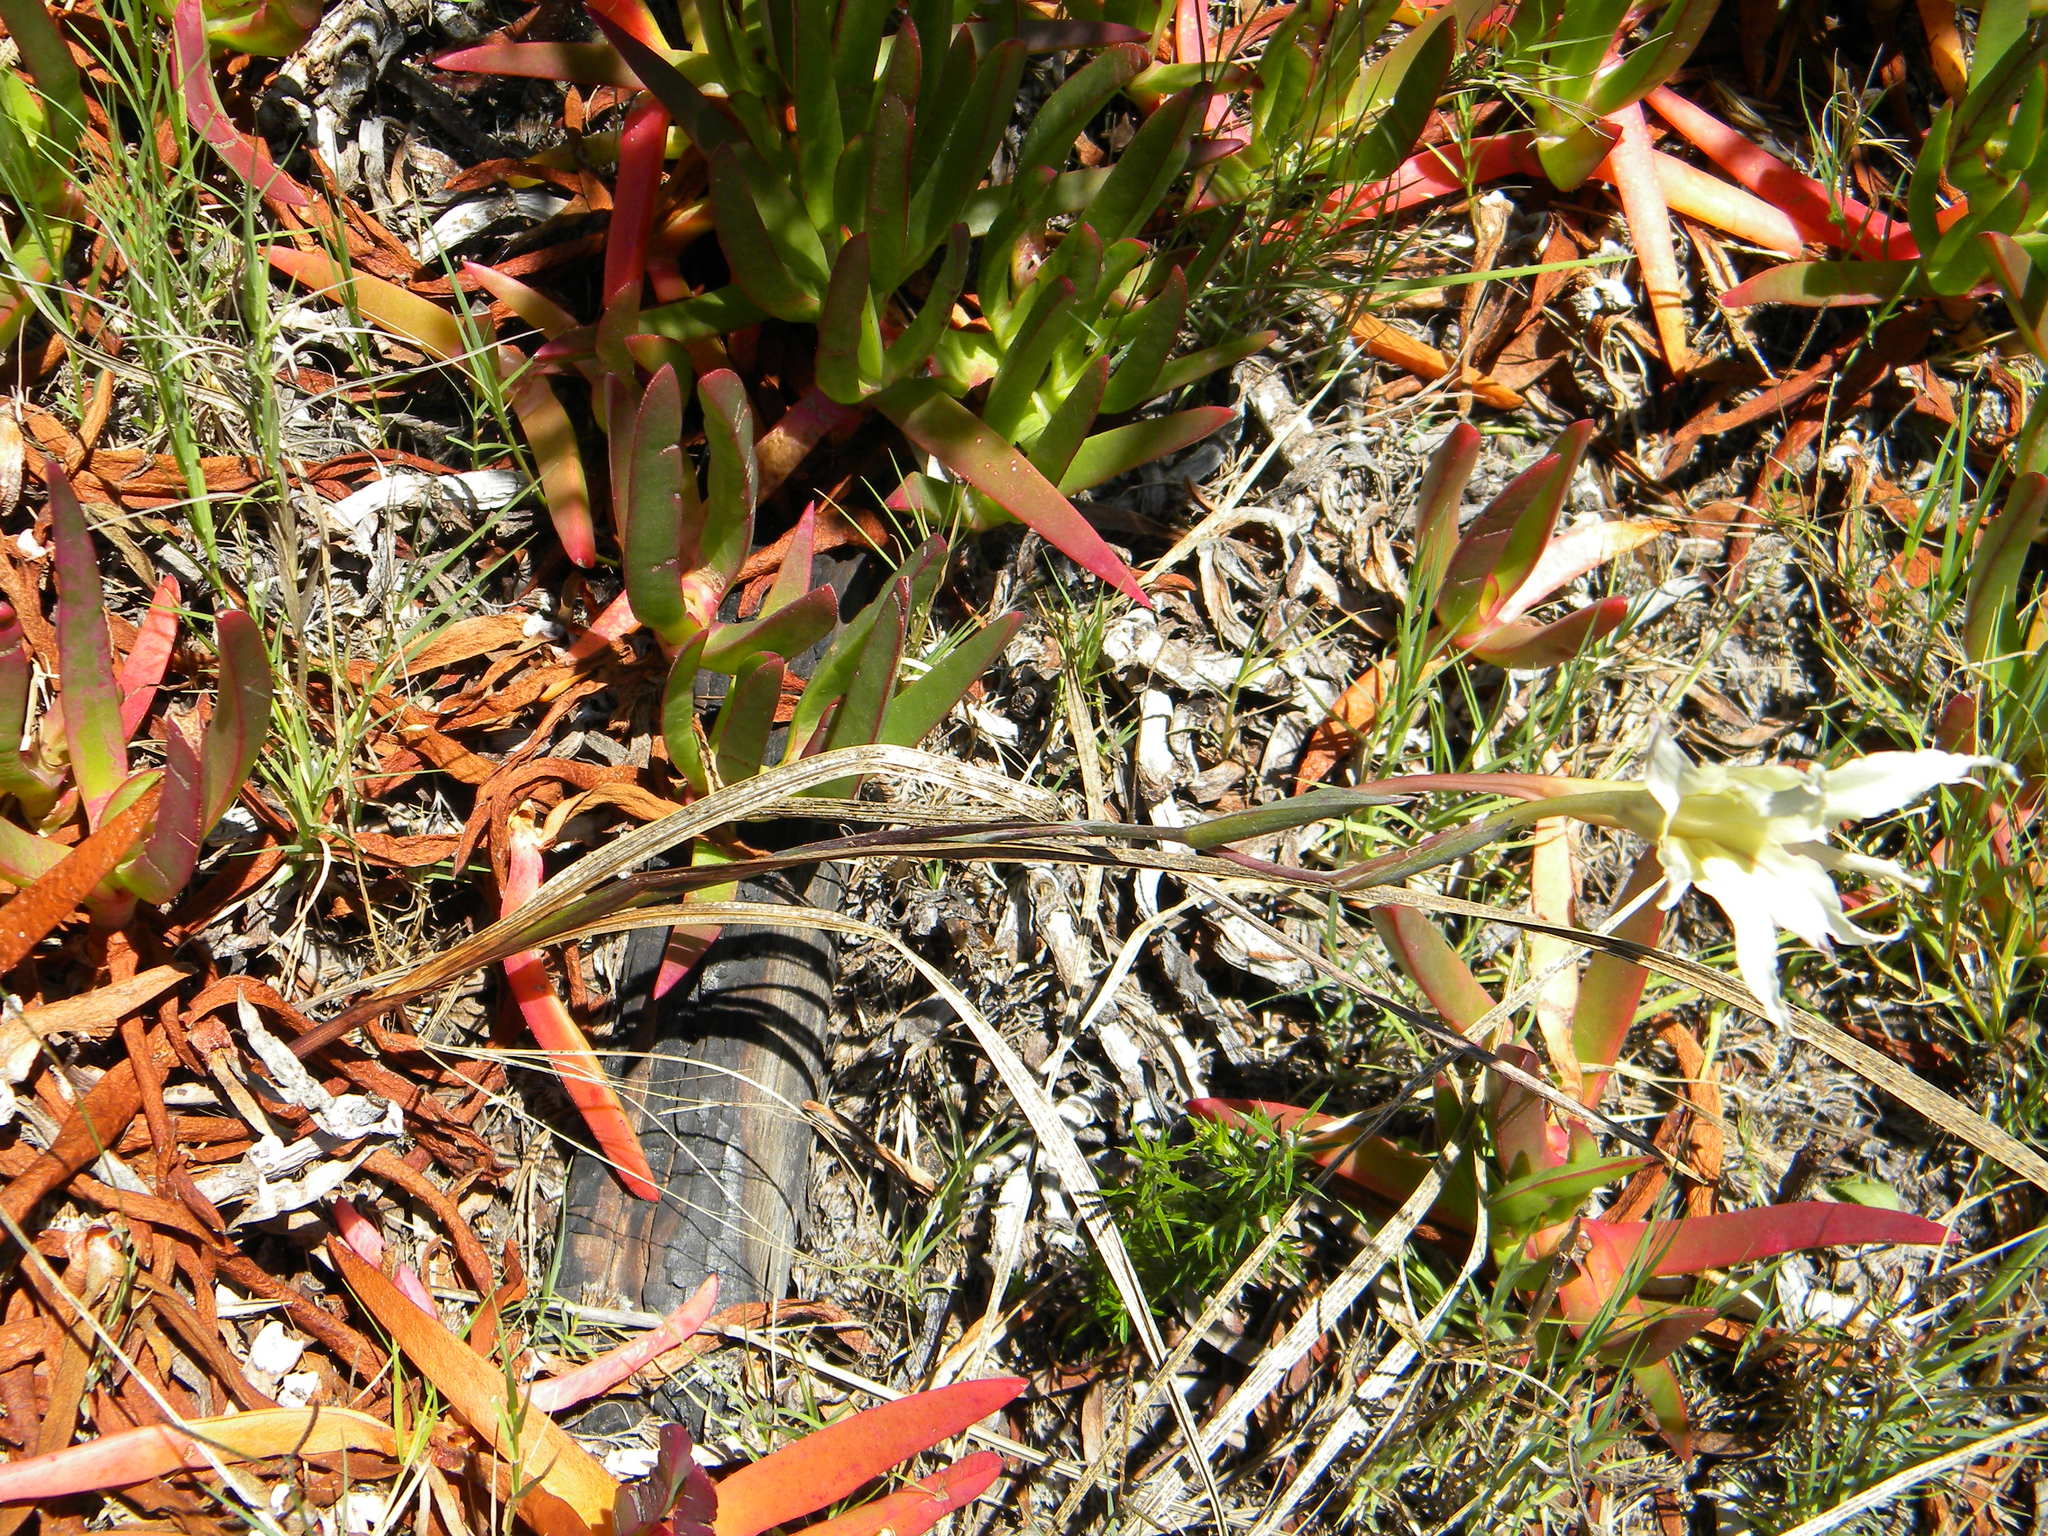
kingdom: Plantae
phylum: Tracheophyta
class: Liliopsida
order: Asparagales
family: Iridaceae
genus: Gladiolus
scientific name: Gladiolus undulatus
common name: Large painted-lady
